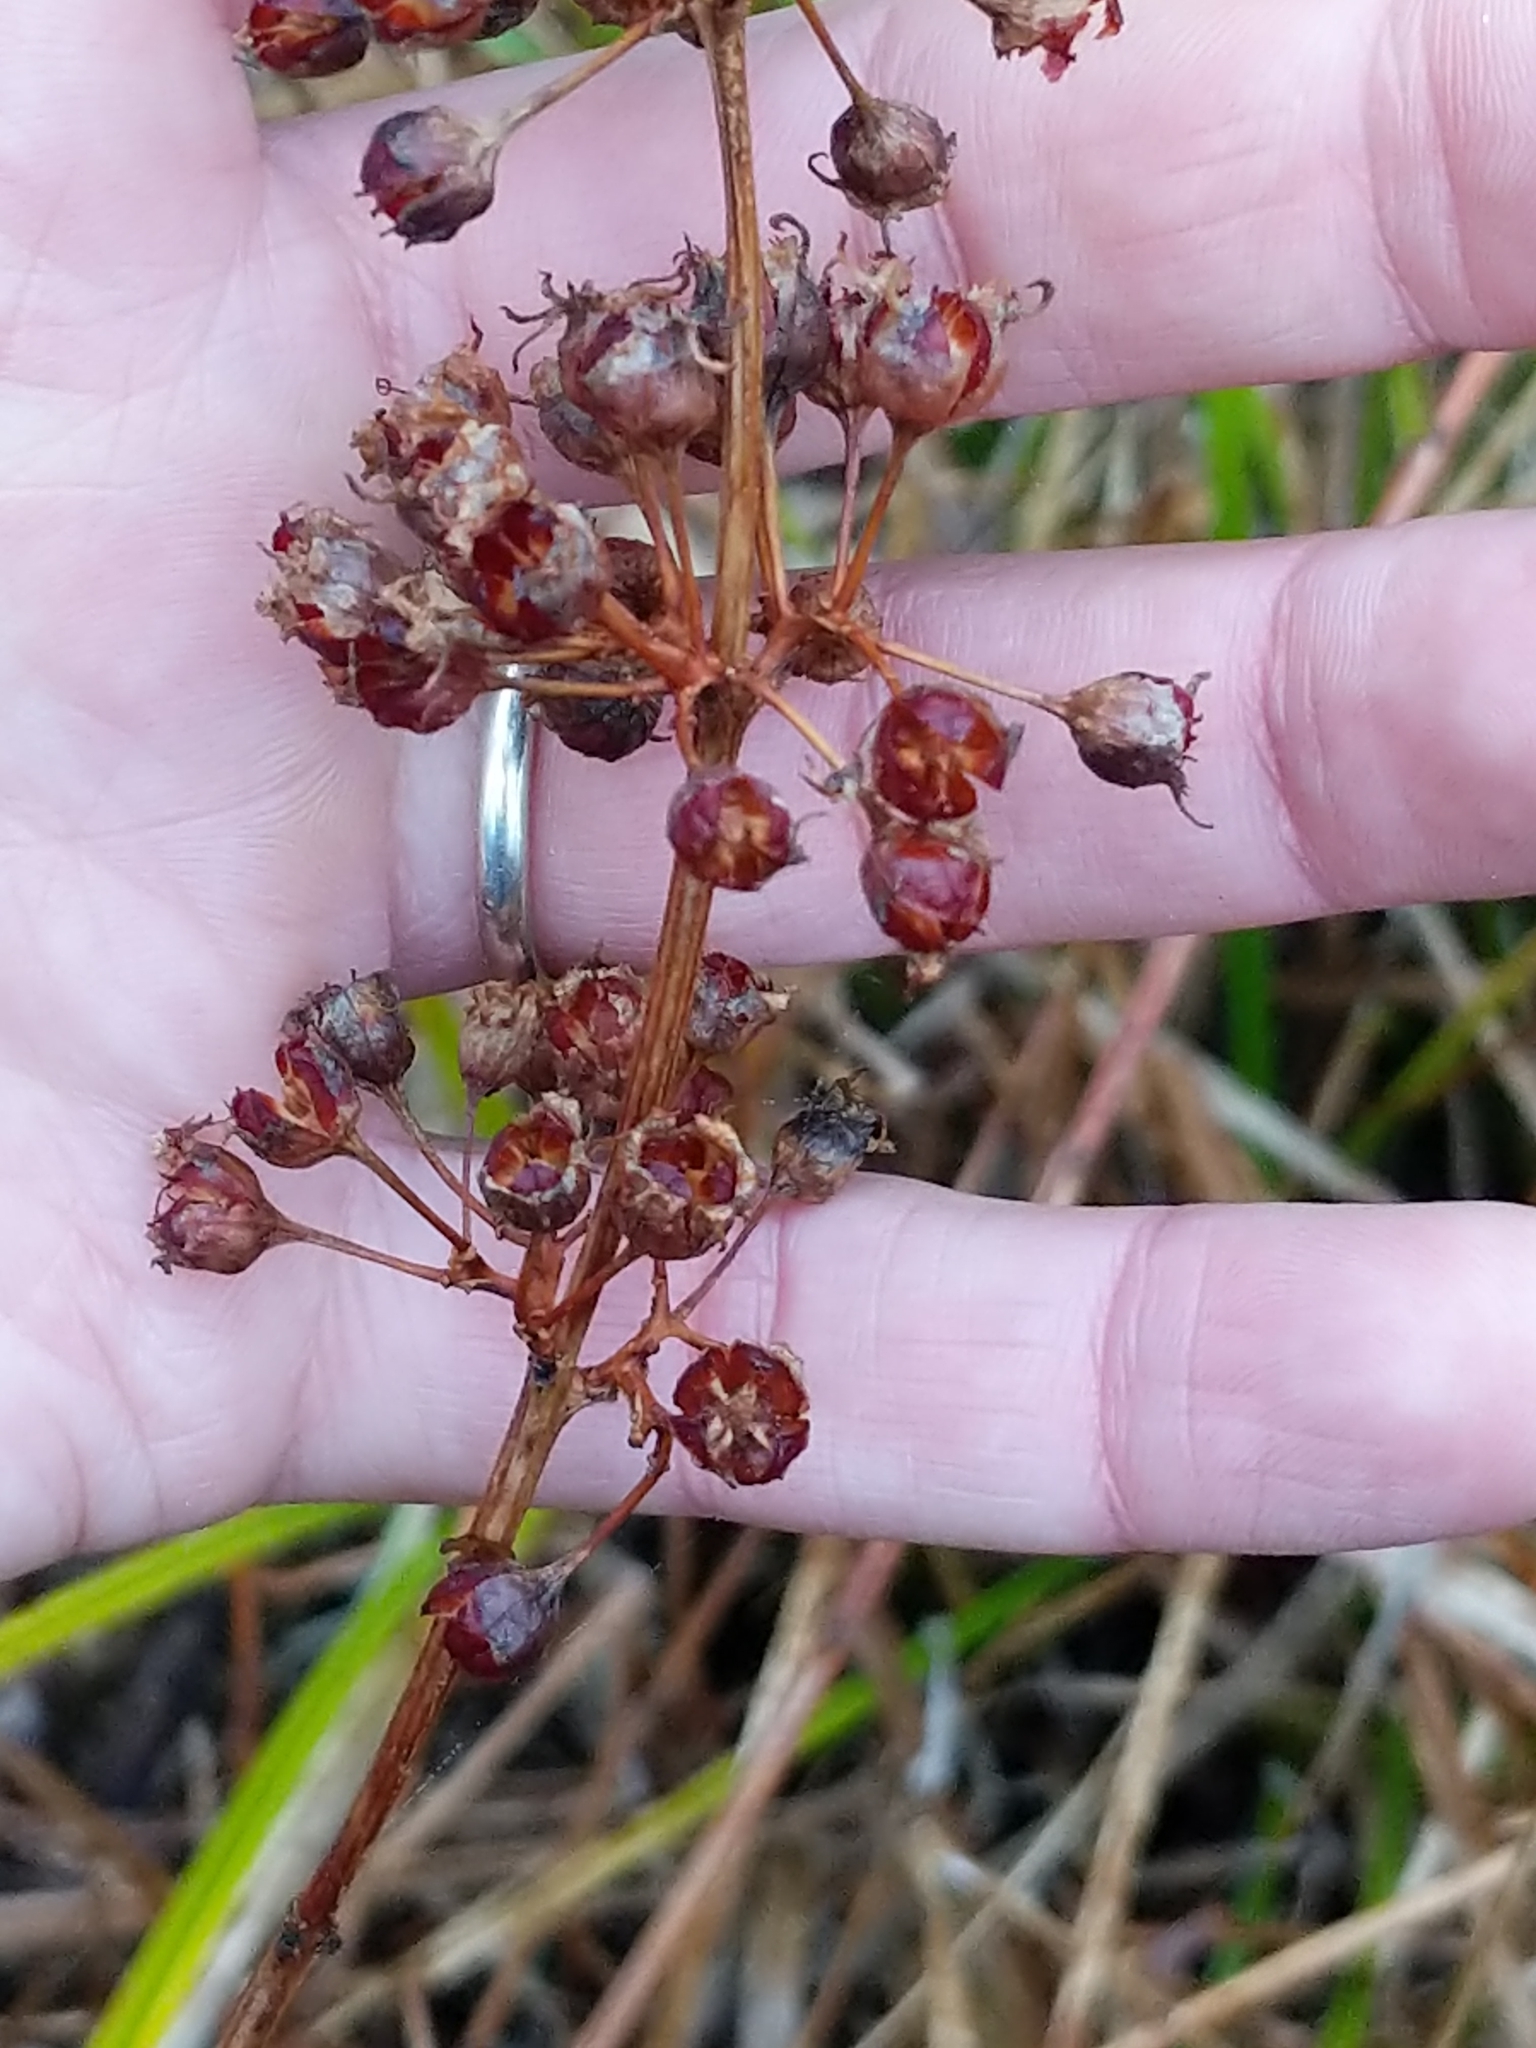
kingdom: Plantae
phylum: Tracheophyta
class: Magnoliopsida
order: Myrtales
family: Lythraceae
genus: Decodon
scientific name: Decodon verticillatus
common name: Hairy swamp loosestrife
